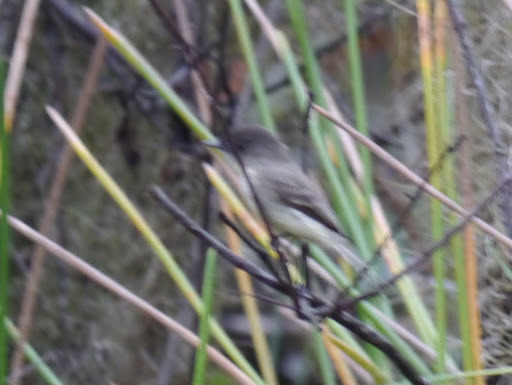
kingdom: Animalia
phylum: Chordata
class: Aves
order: Passeriformes
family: Tyrannidae
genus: Sayornis
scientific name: Sayornis phoebe
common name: Eastern phoebe
